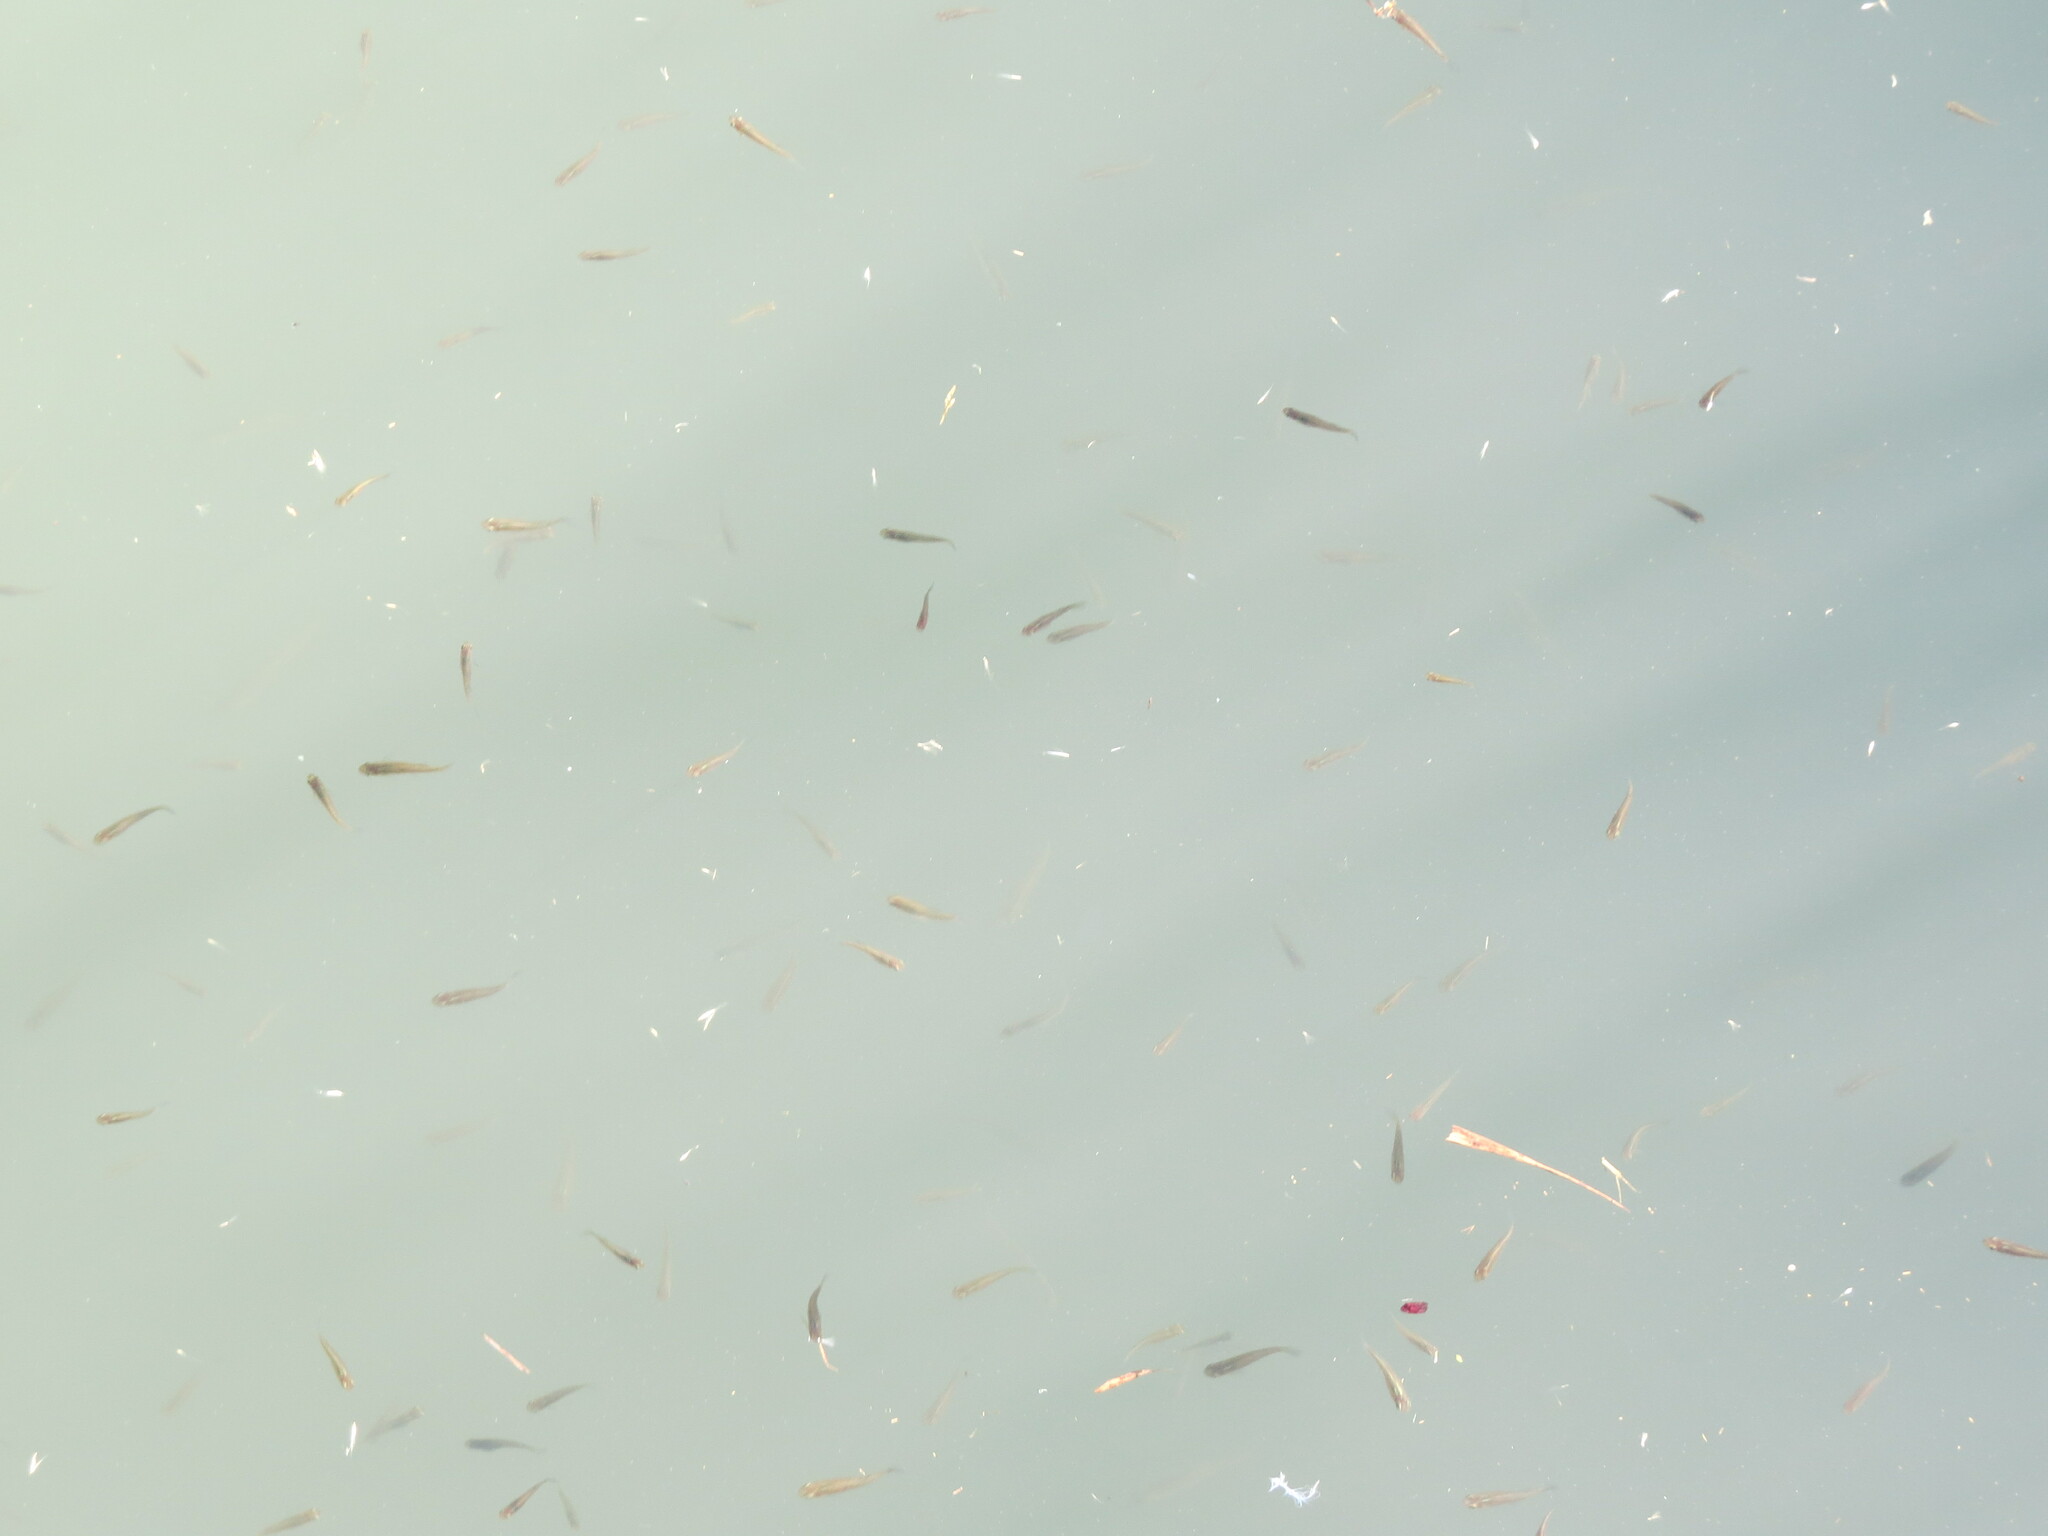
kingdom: Animalia
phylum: Chordata
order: Cyprinodontiformes
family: Poeciliidae
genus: Gambusia
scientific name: Gambusia holbrooki
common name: Eastern mosquitofish
